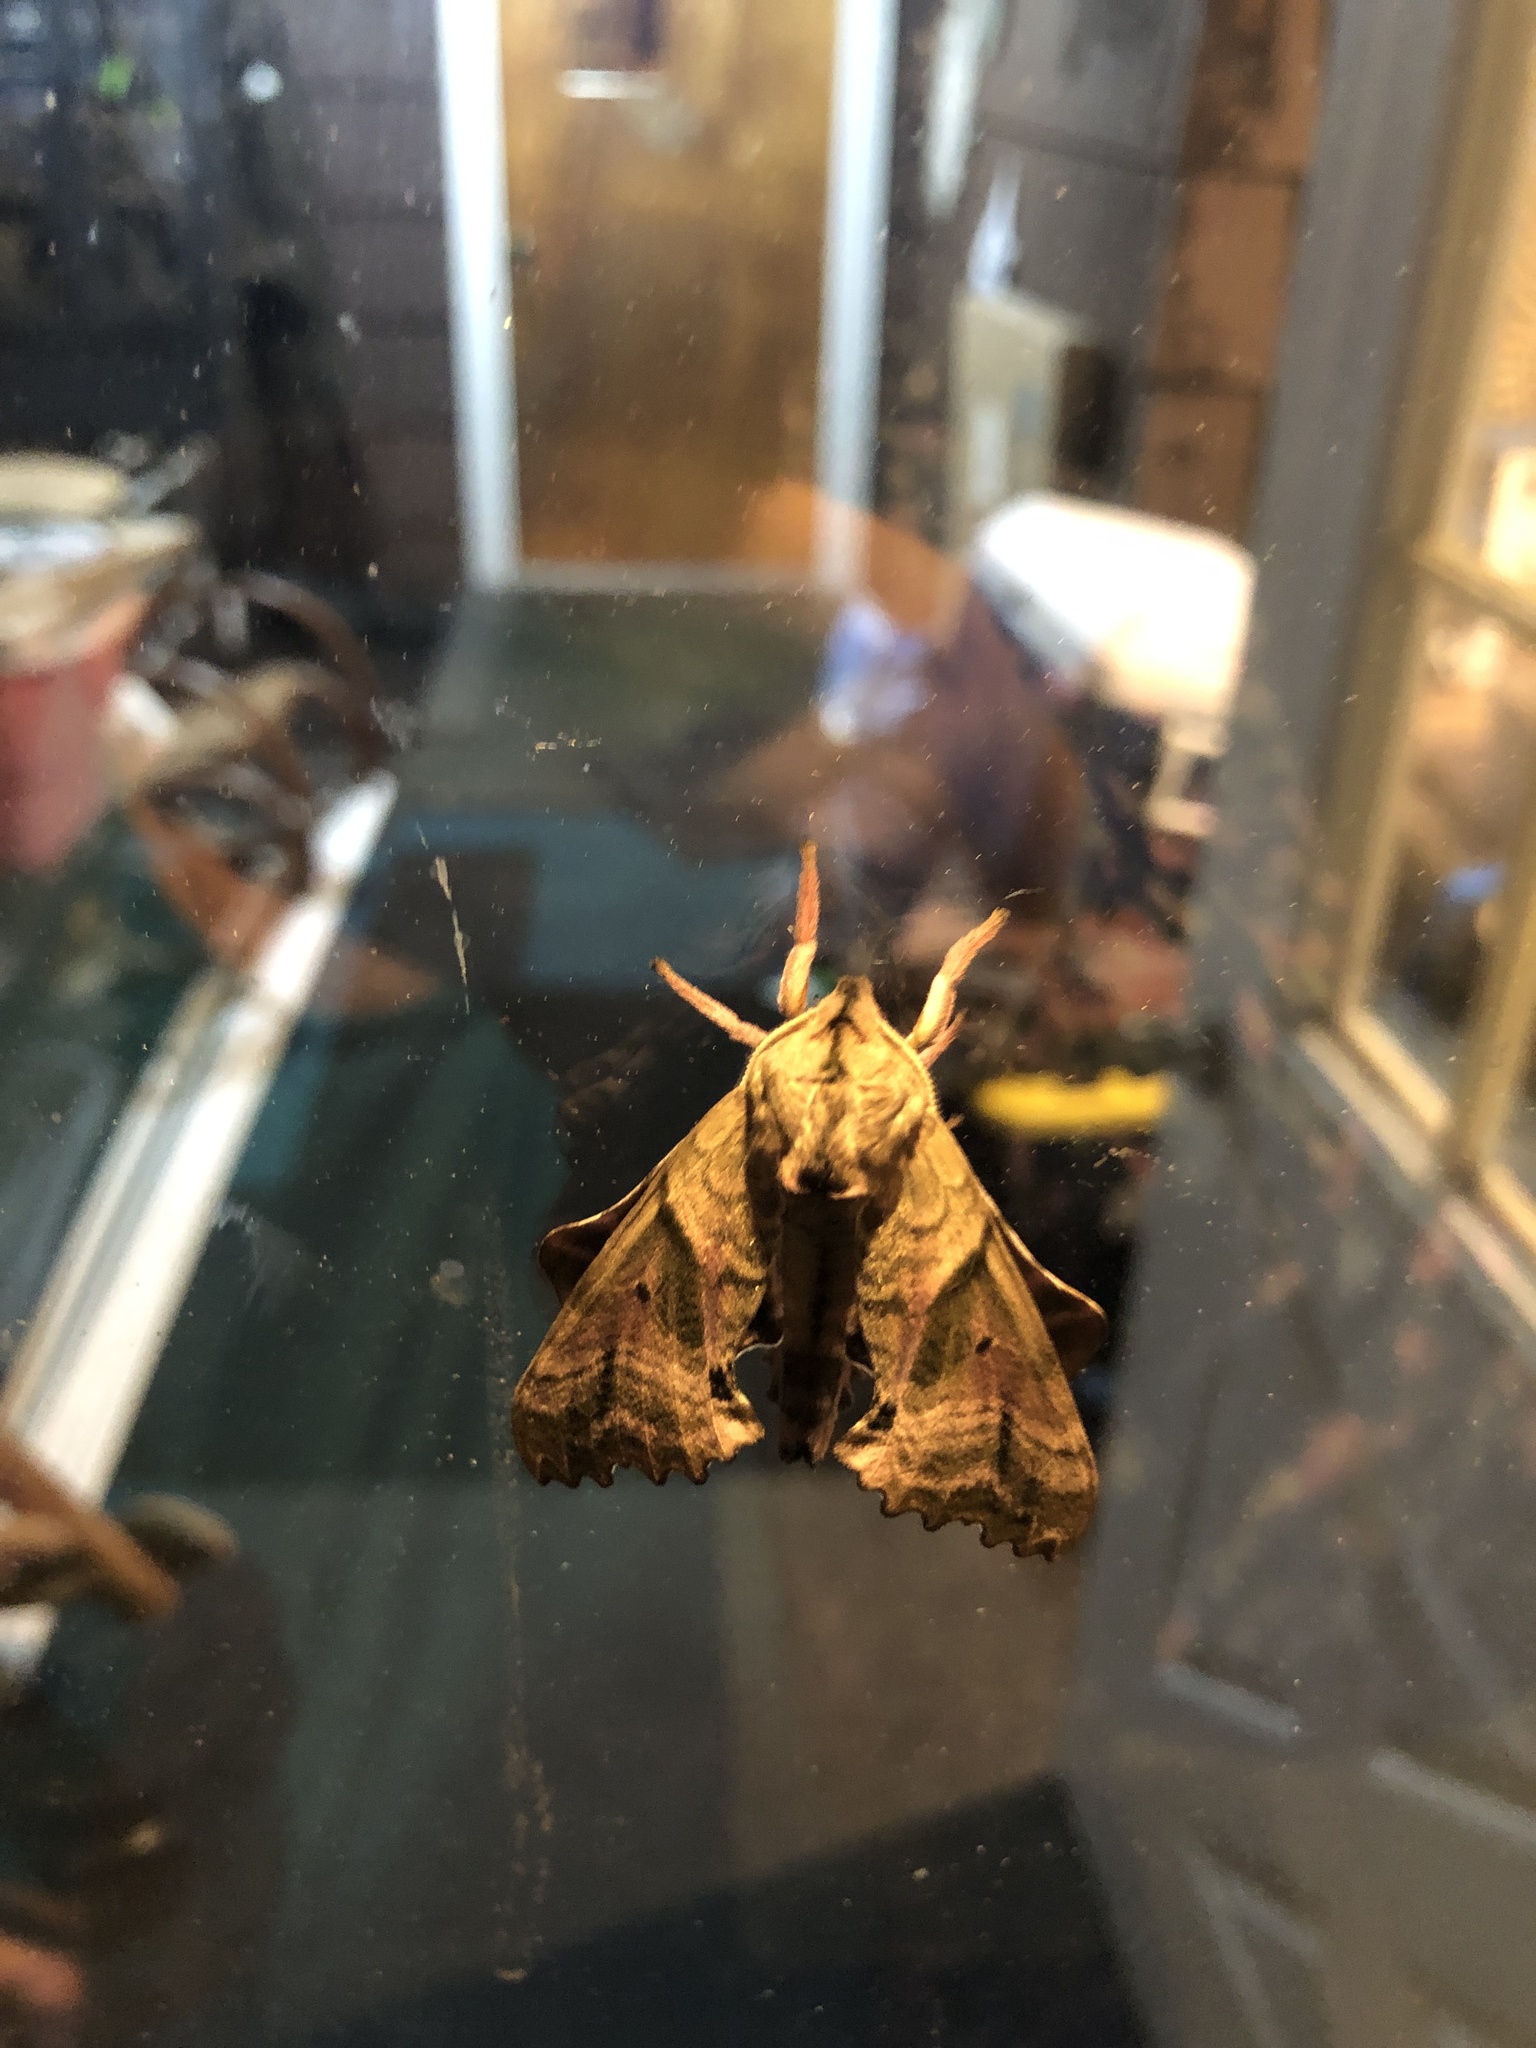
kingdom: Animalia
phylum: Arthropoda
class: Insecta
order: Lepidoptera
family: Sphingidae
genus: Paonias
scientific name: Paonias excaecata
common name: Blind-eyed sphinx
